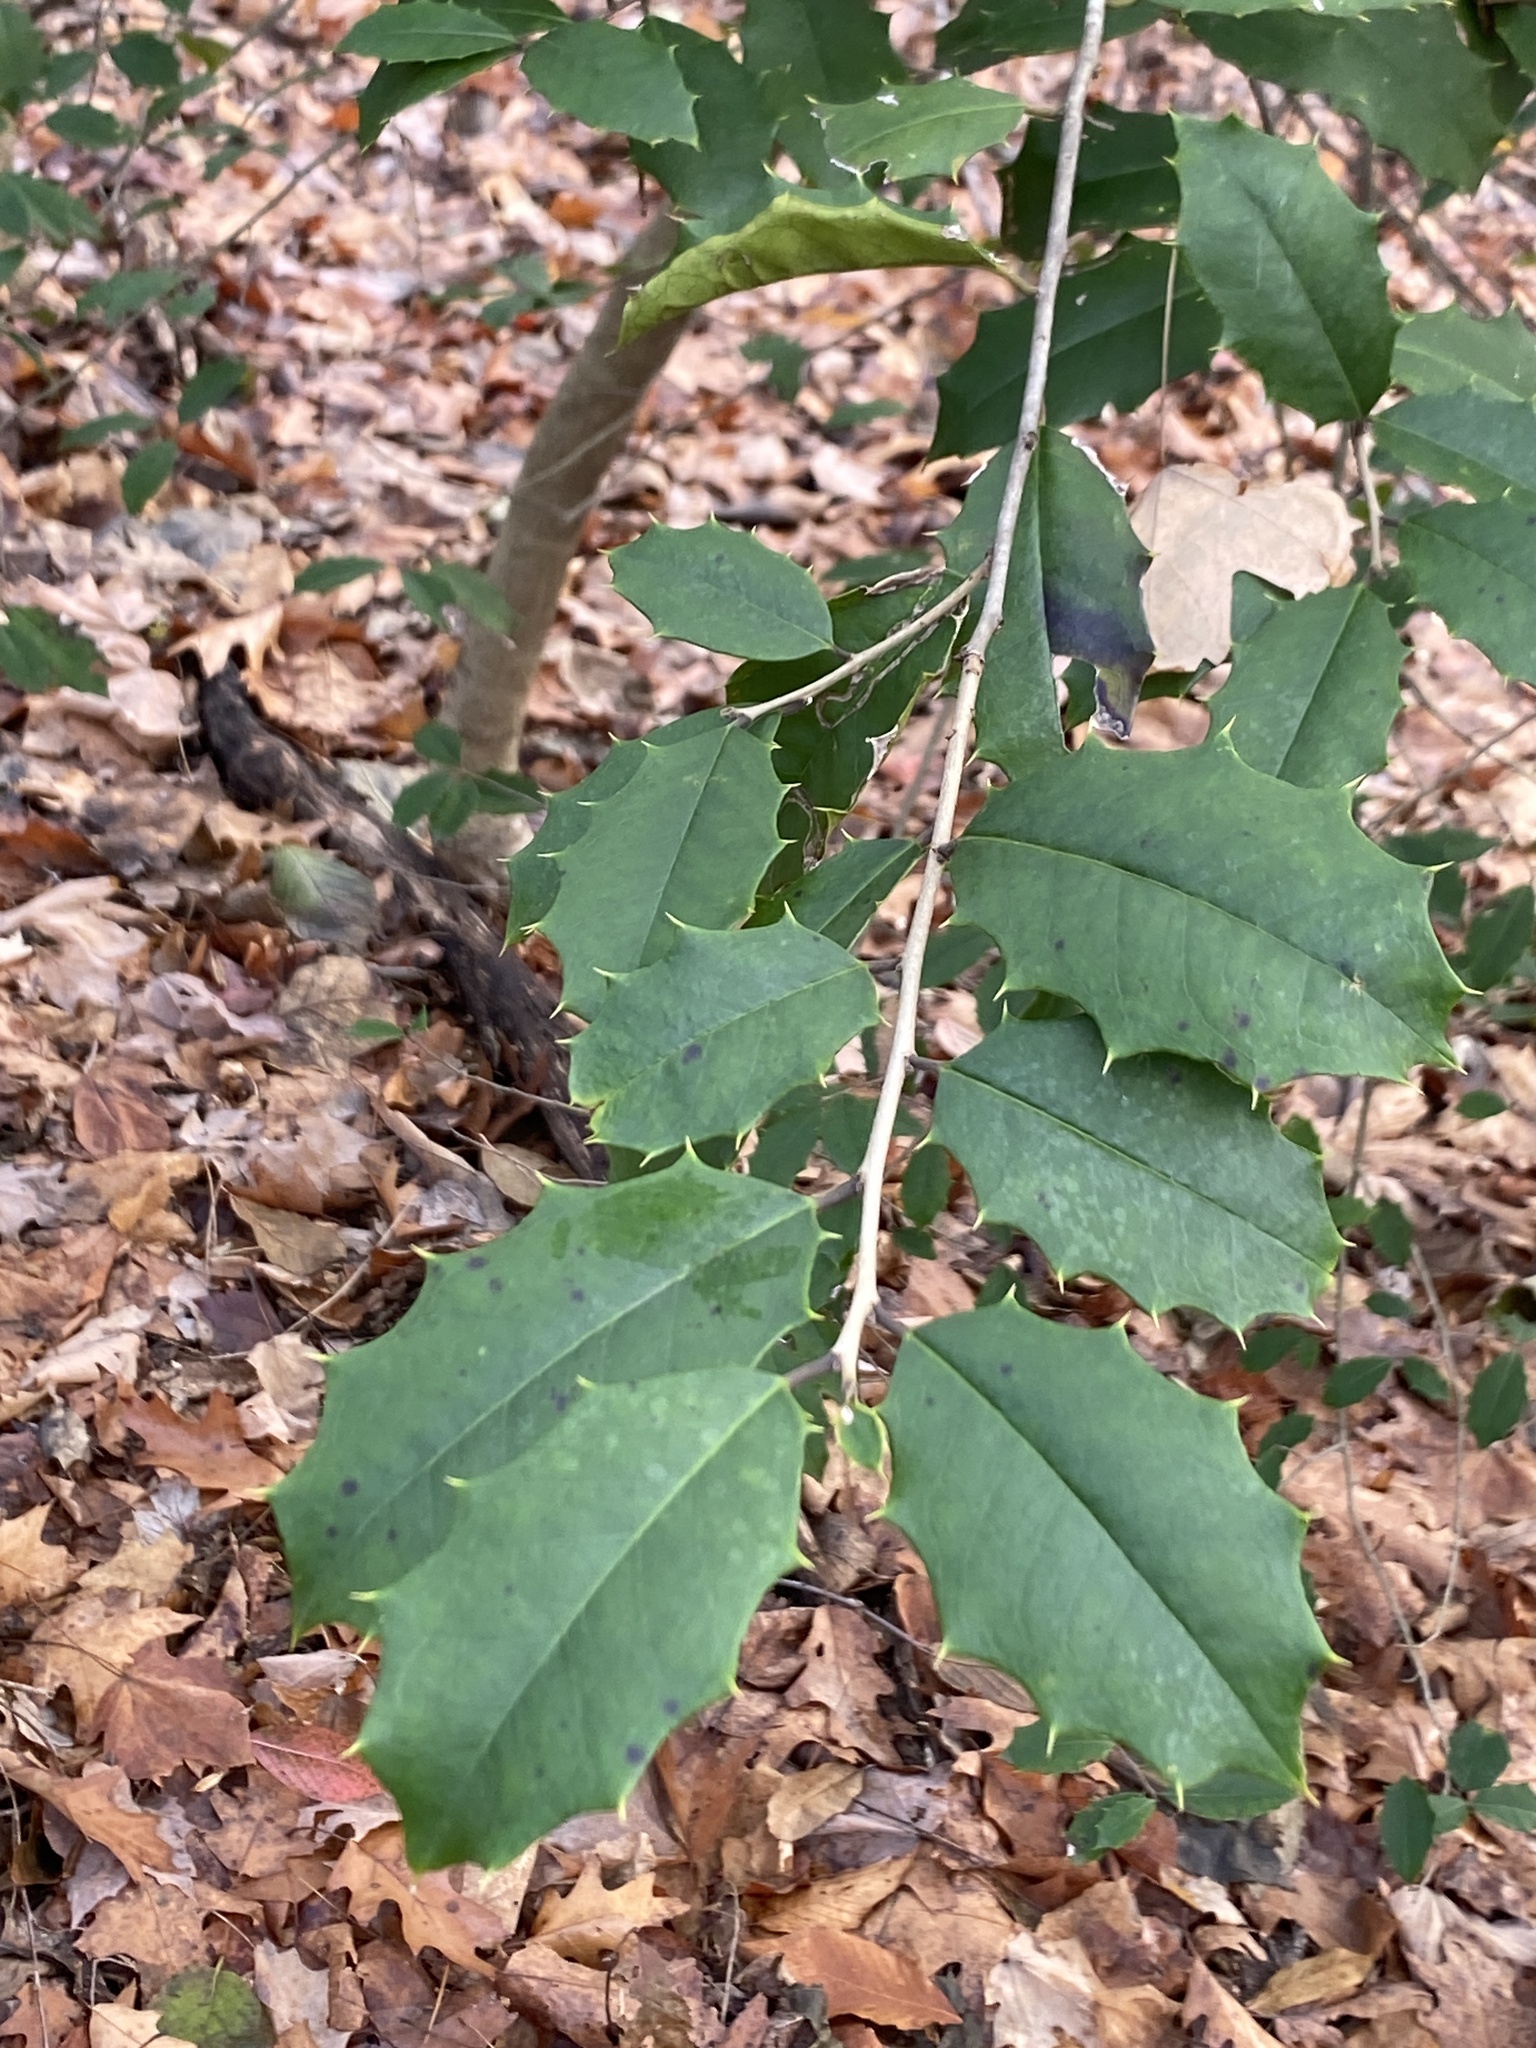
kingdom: Plantae
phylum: Tracheophyta
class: Magnoliopsida
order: Aquifoliales
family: Aquifoliaceae
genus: Ilex
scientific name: Ilex opaca
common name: American holly
